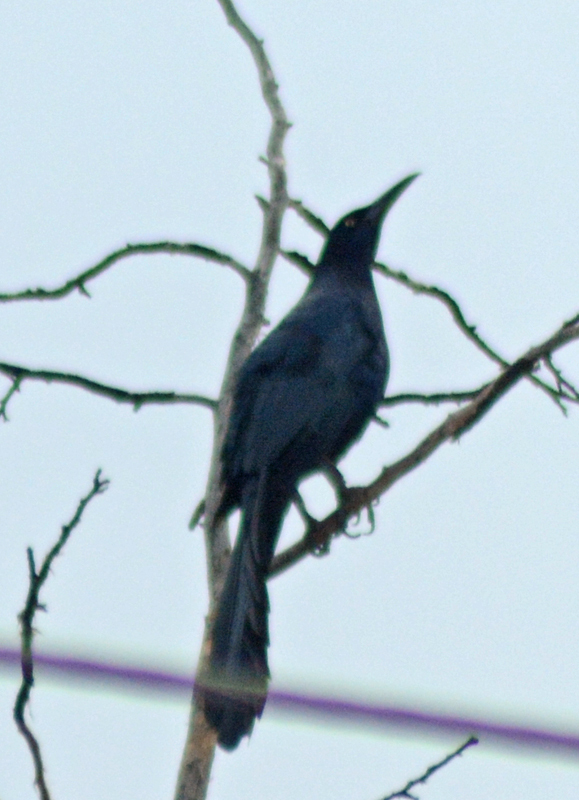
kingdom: Animalia
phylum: Chordata
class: Aves
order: Passeriformes
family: Icteridae
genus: Quiscalus
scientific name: Quiscalus mexicanus
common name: Great-tailed grackle
